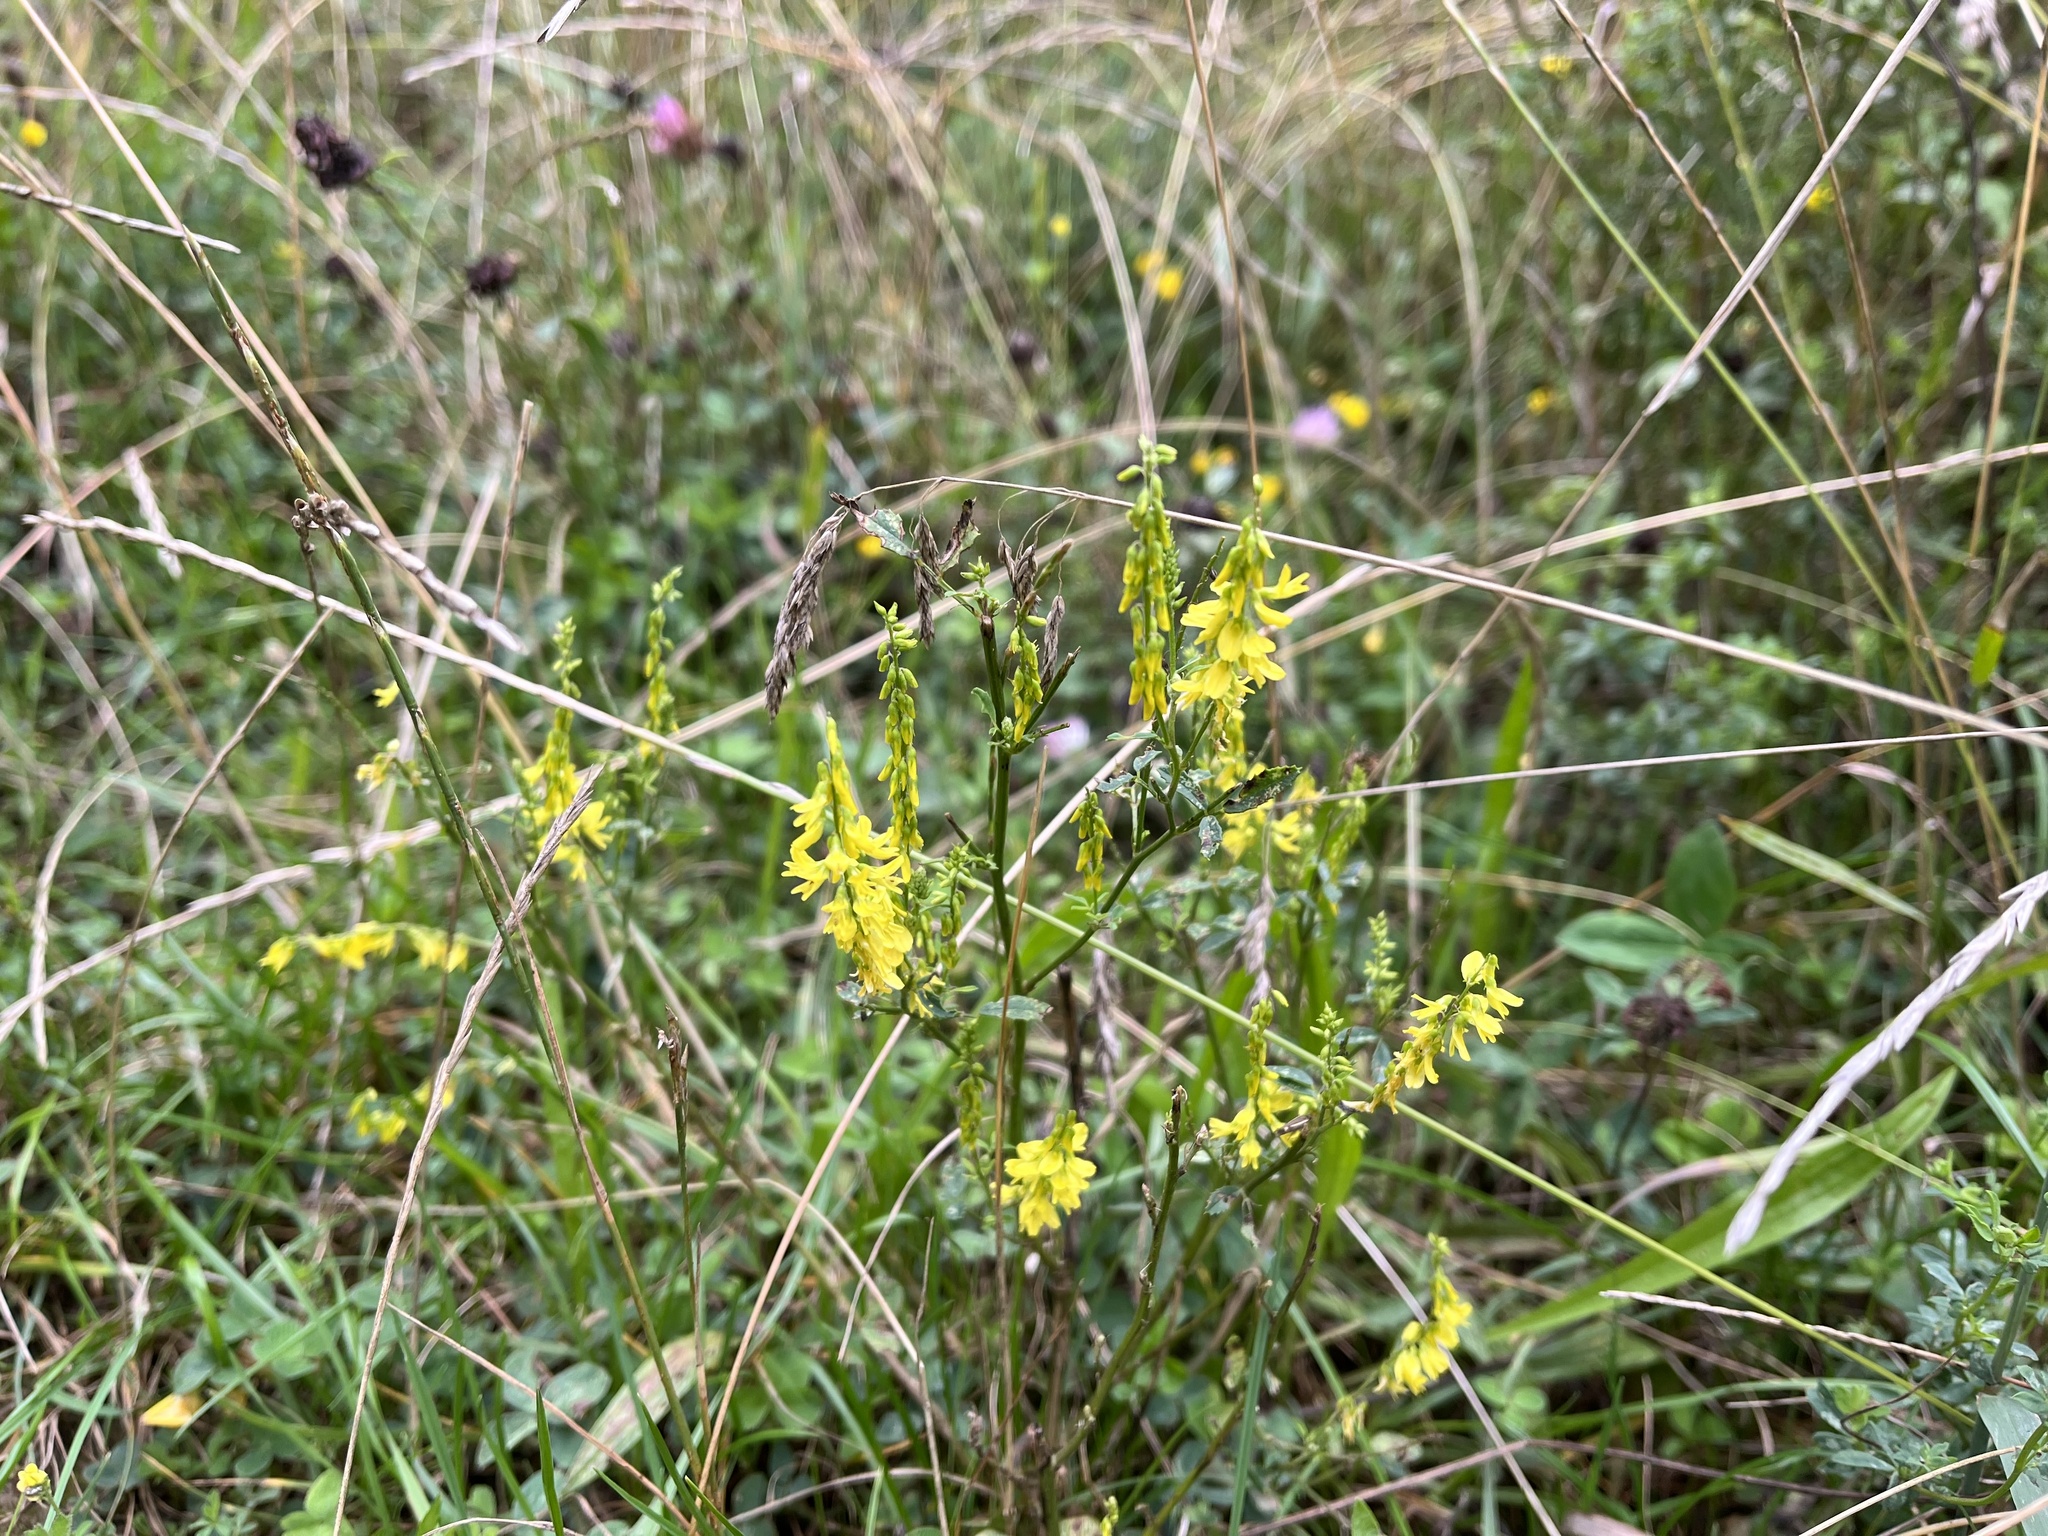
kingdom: Plantae
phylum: Tracheophyta
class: Magnoliopsida
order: Fabales
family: Fabaceae
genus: Melilotus
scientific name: Melilotus officinalis
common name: Sweetclover
